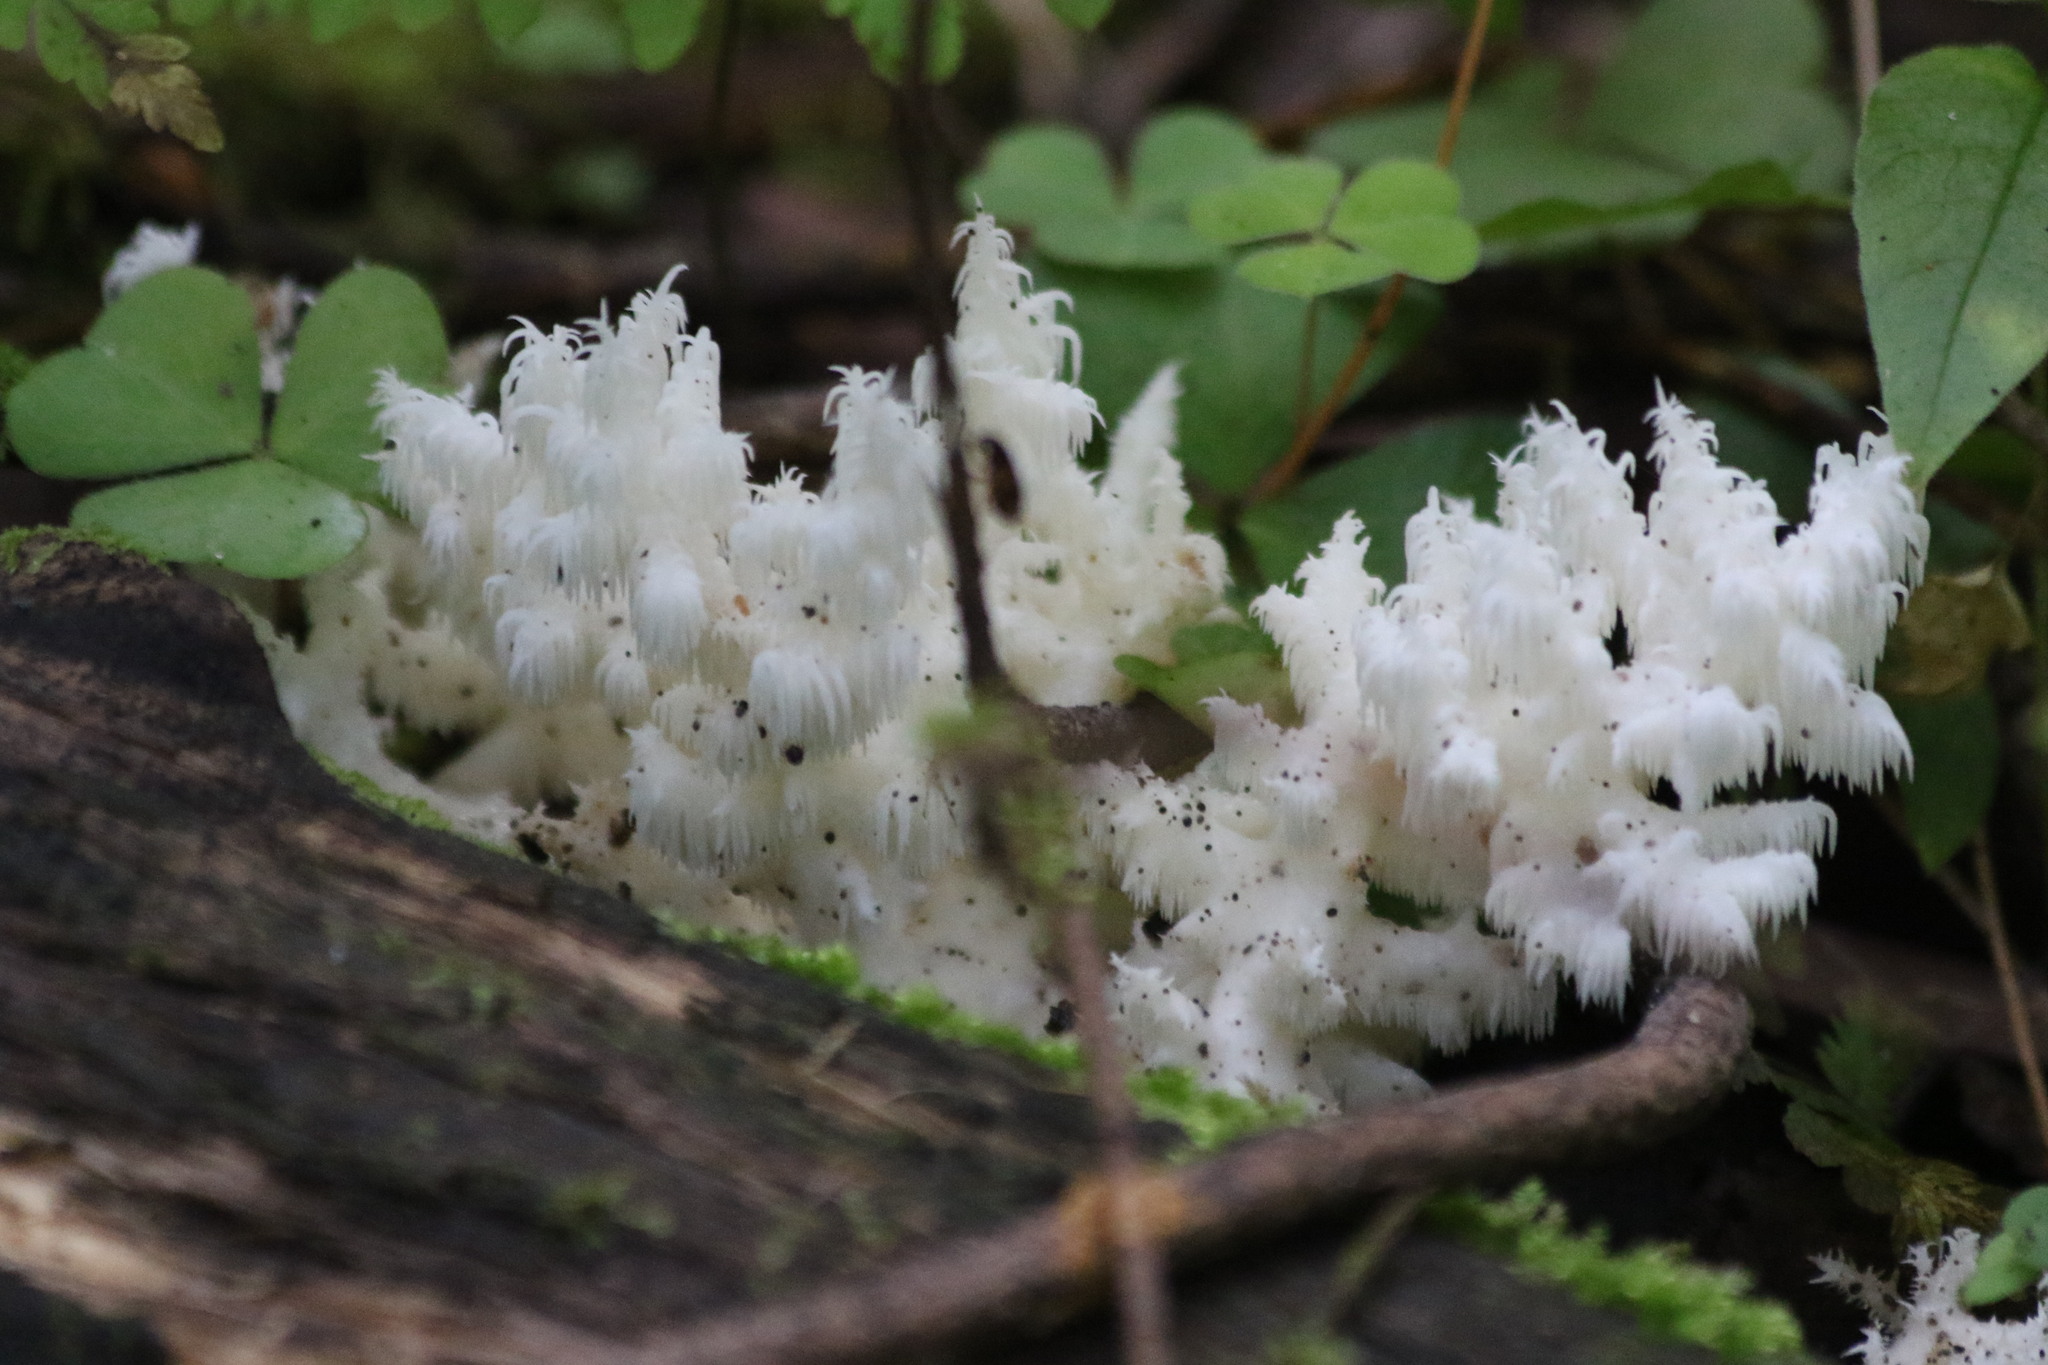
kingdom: Fungi
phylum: Basidiomycota
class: Agaricomycetes
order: Russulales
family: Hericiaceae
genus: Hericium
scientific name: Hericium coralloides
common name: Coral tooth
